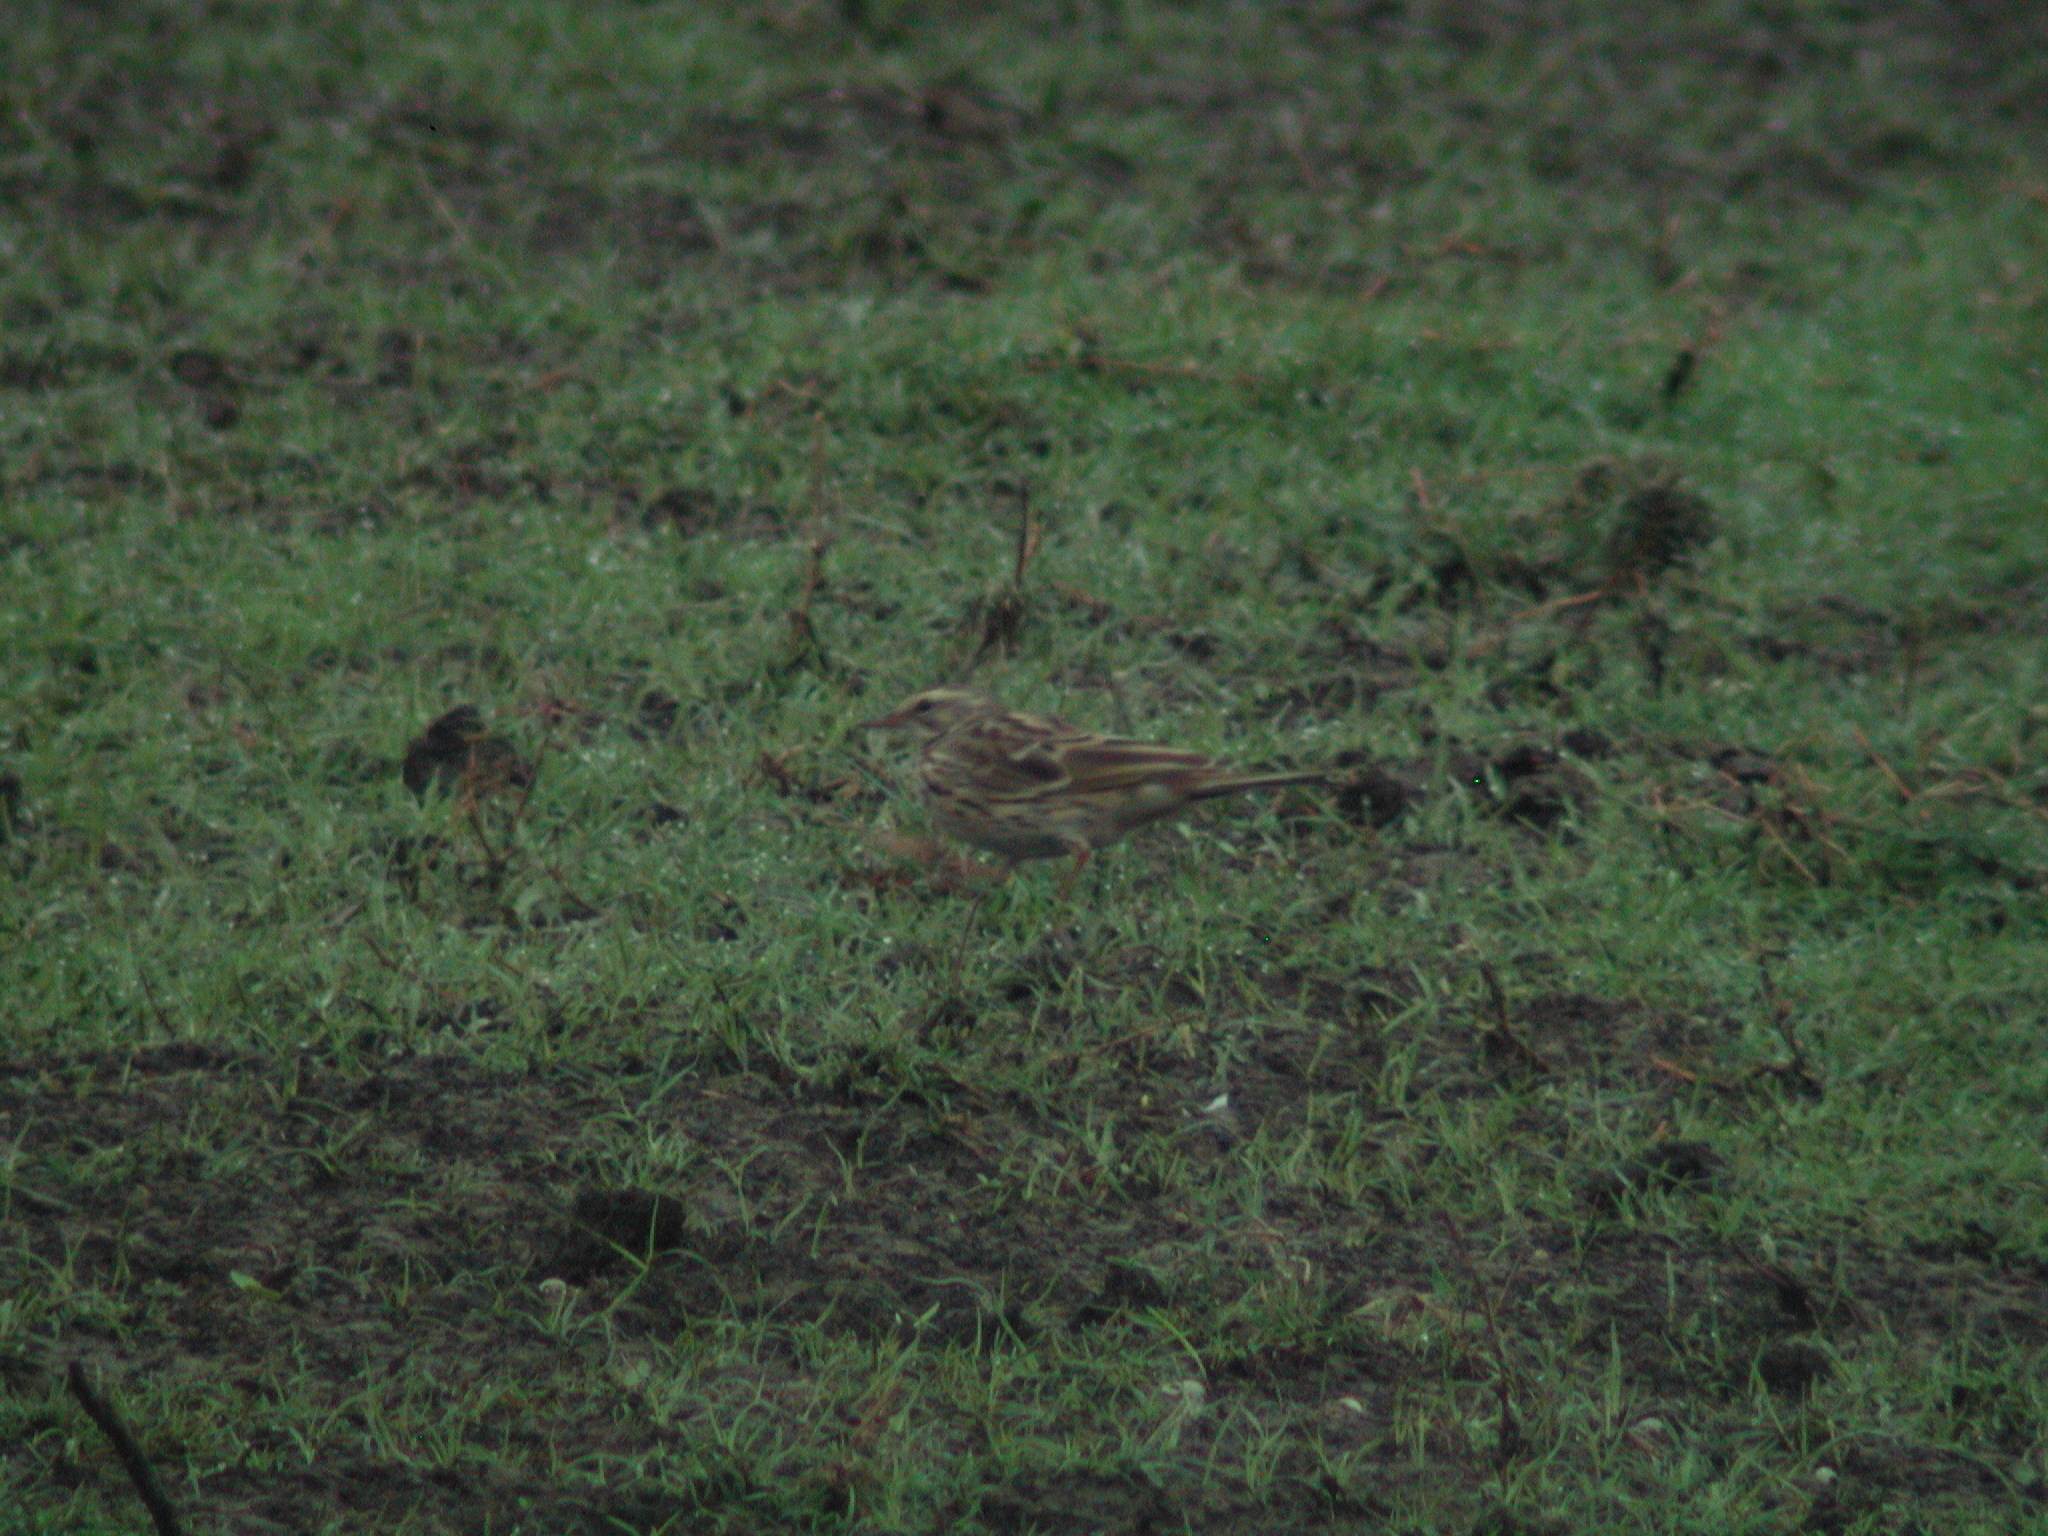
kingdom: Animalia
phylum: Chordata
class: Aves
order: Passeriformes
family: Motacillidae
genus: Anthus
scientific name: Anthus roseatus
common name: Rosy pipit
